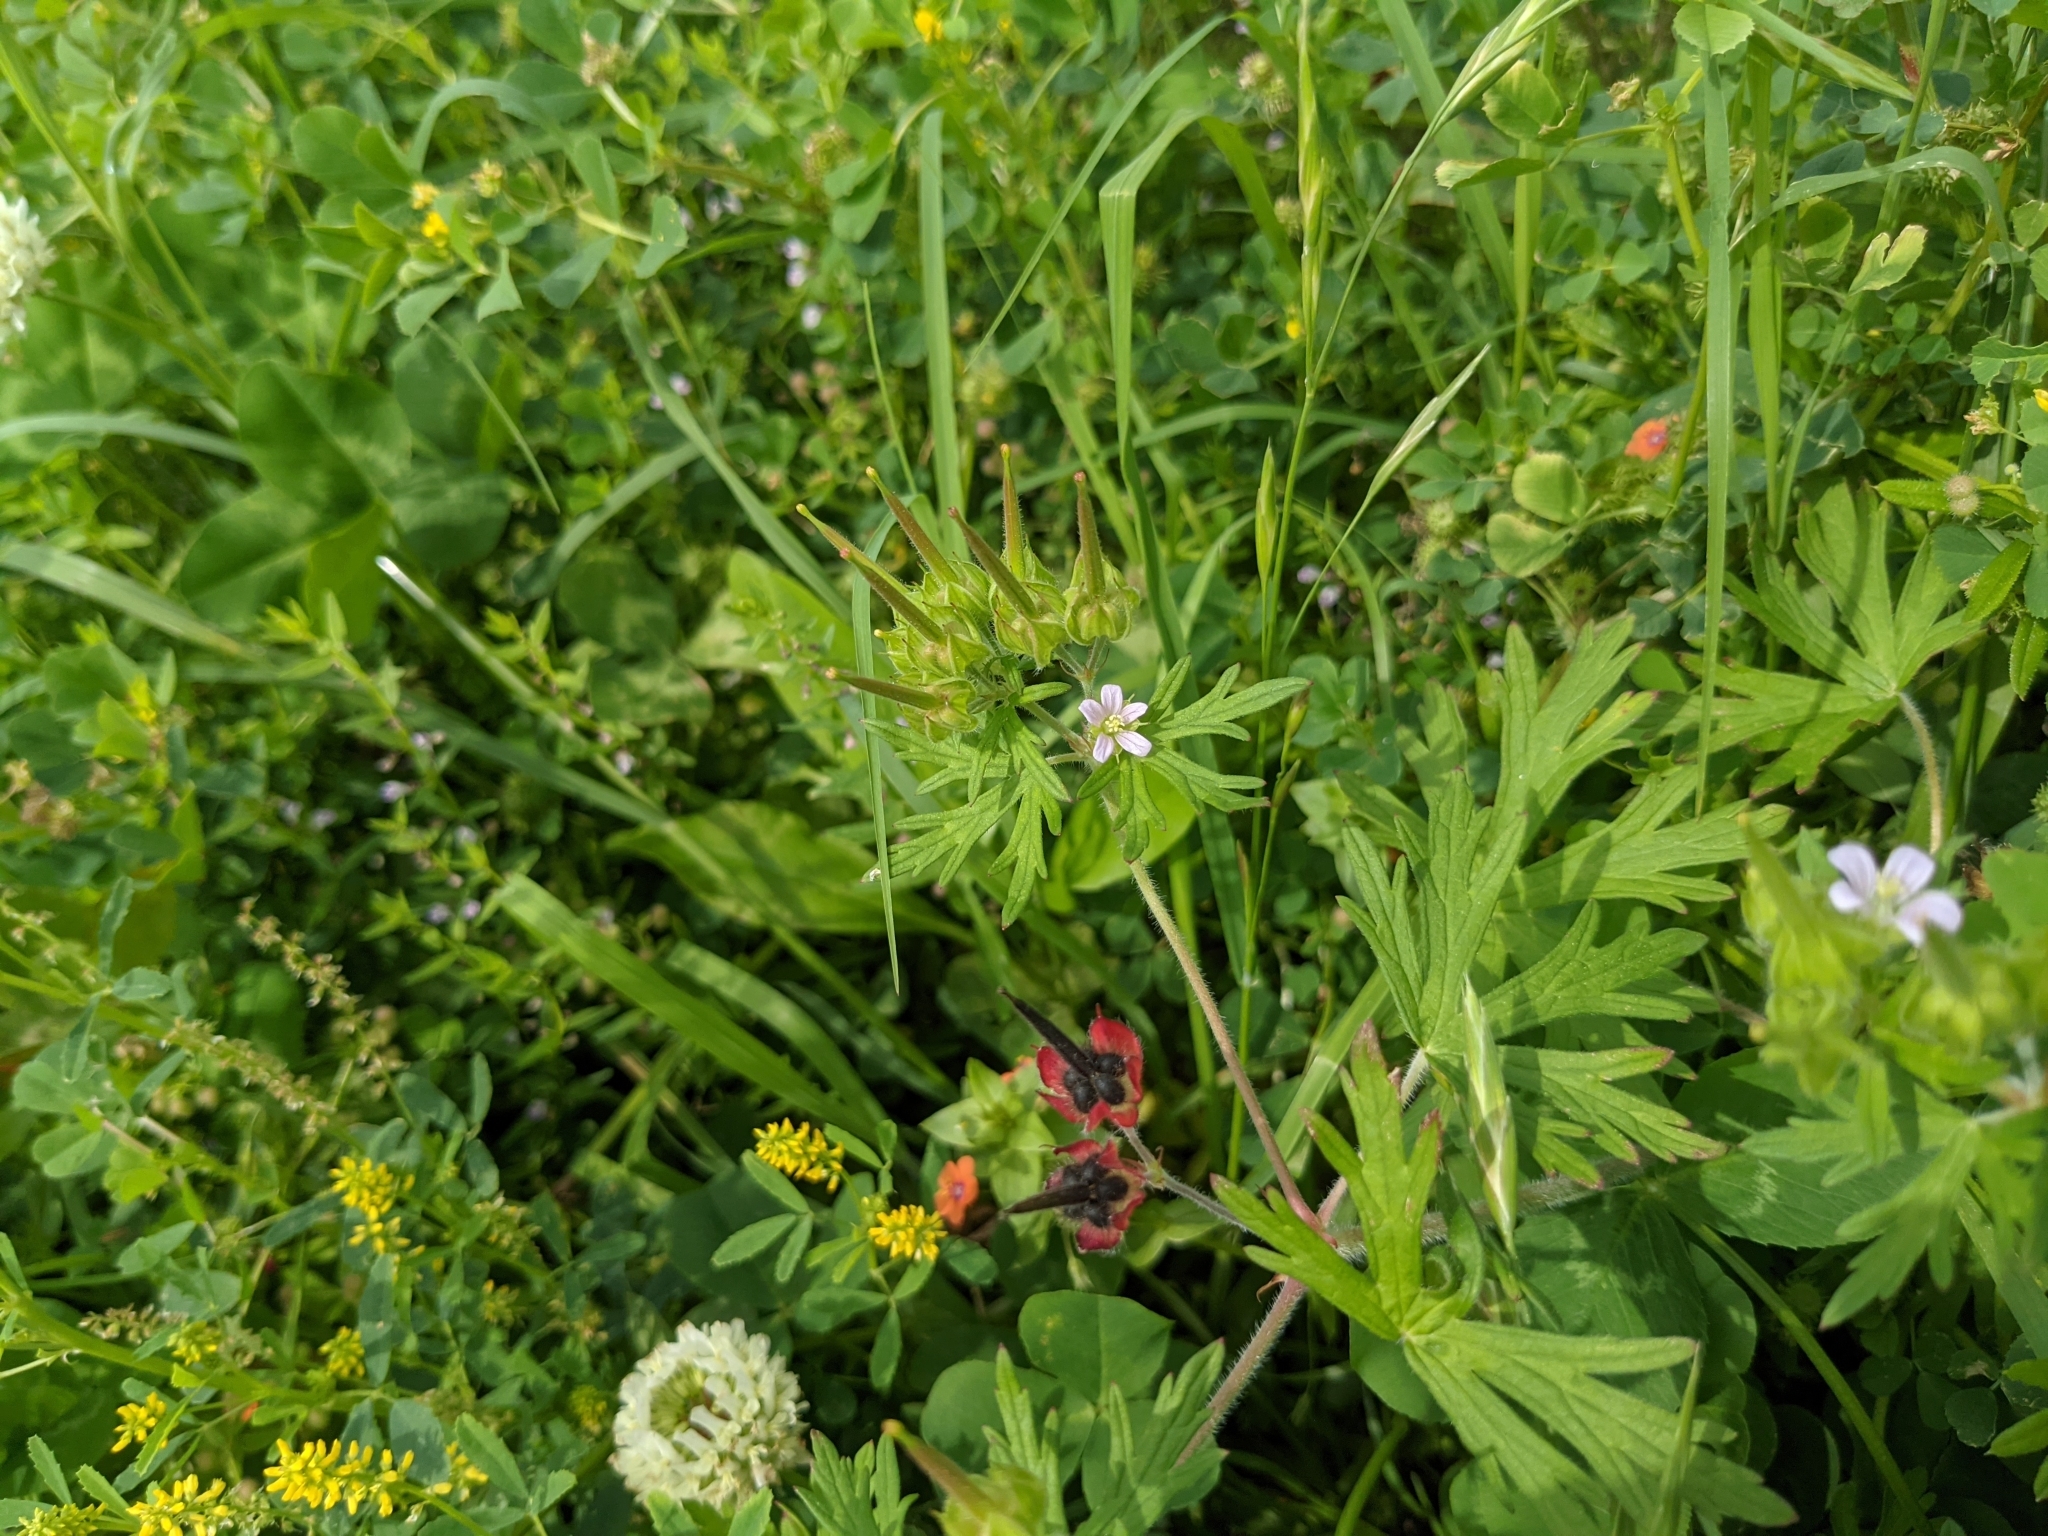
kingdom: Plantae
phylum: Tracheophyta
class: Magnoliopsida
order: Geraniales
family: Geraniaceae
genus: Geranium
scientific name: Geranium carolinianum
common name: Carolina crane's-bill
